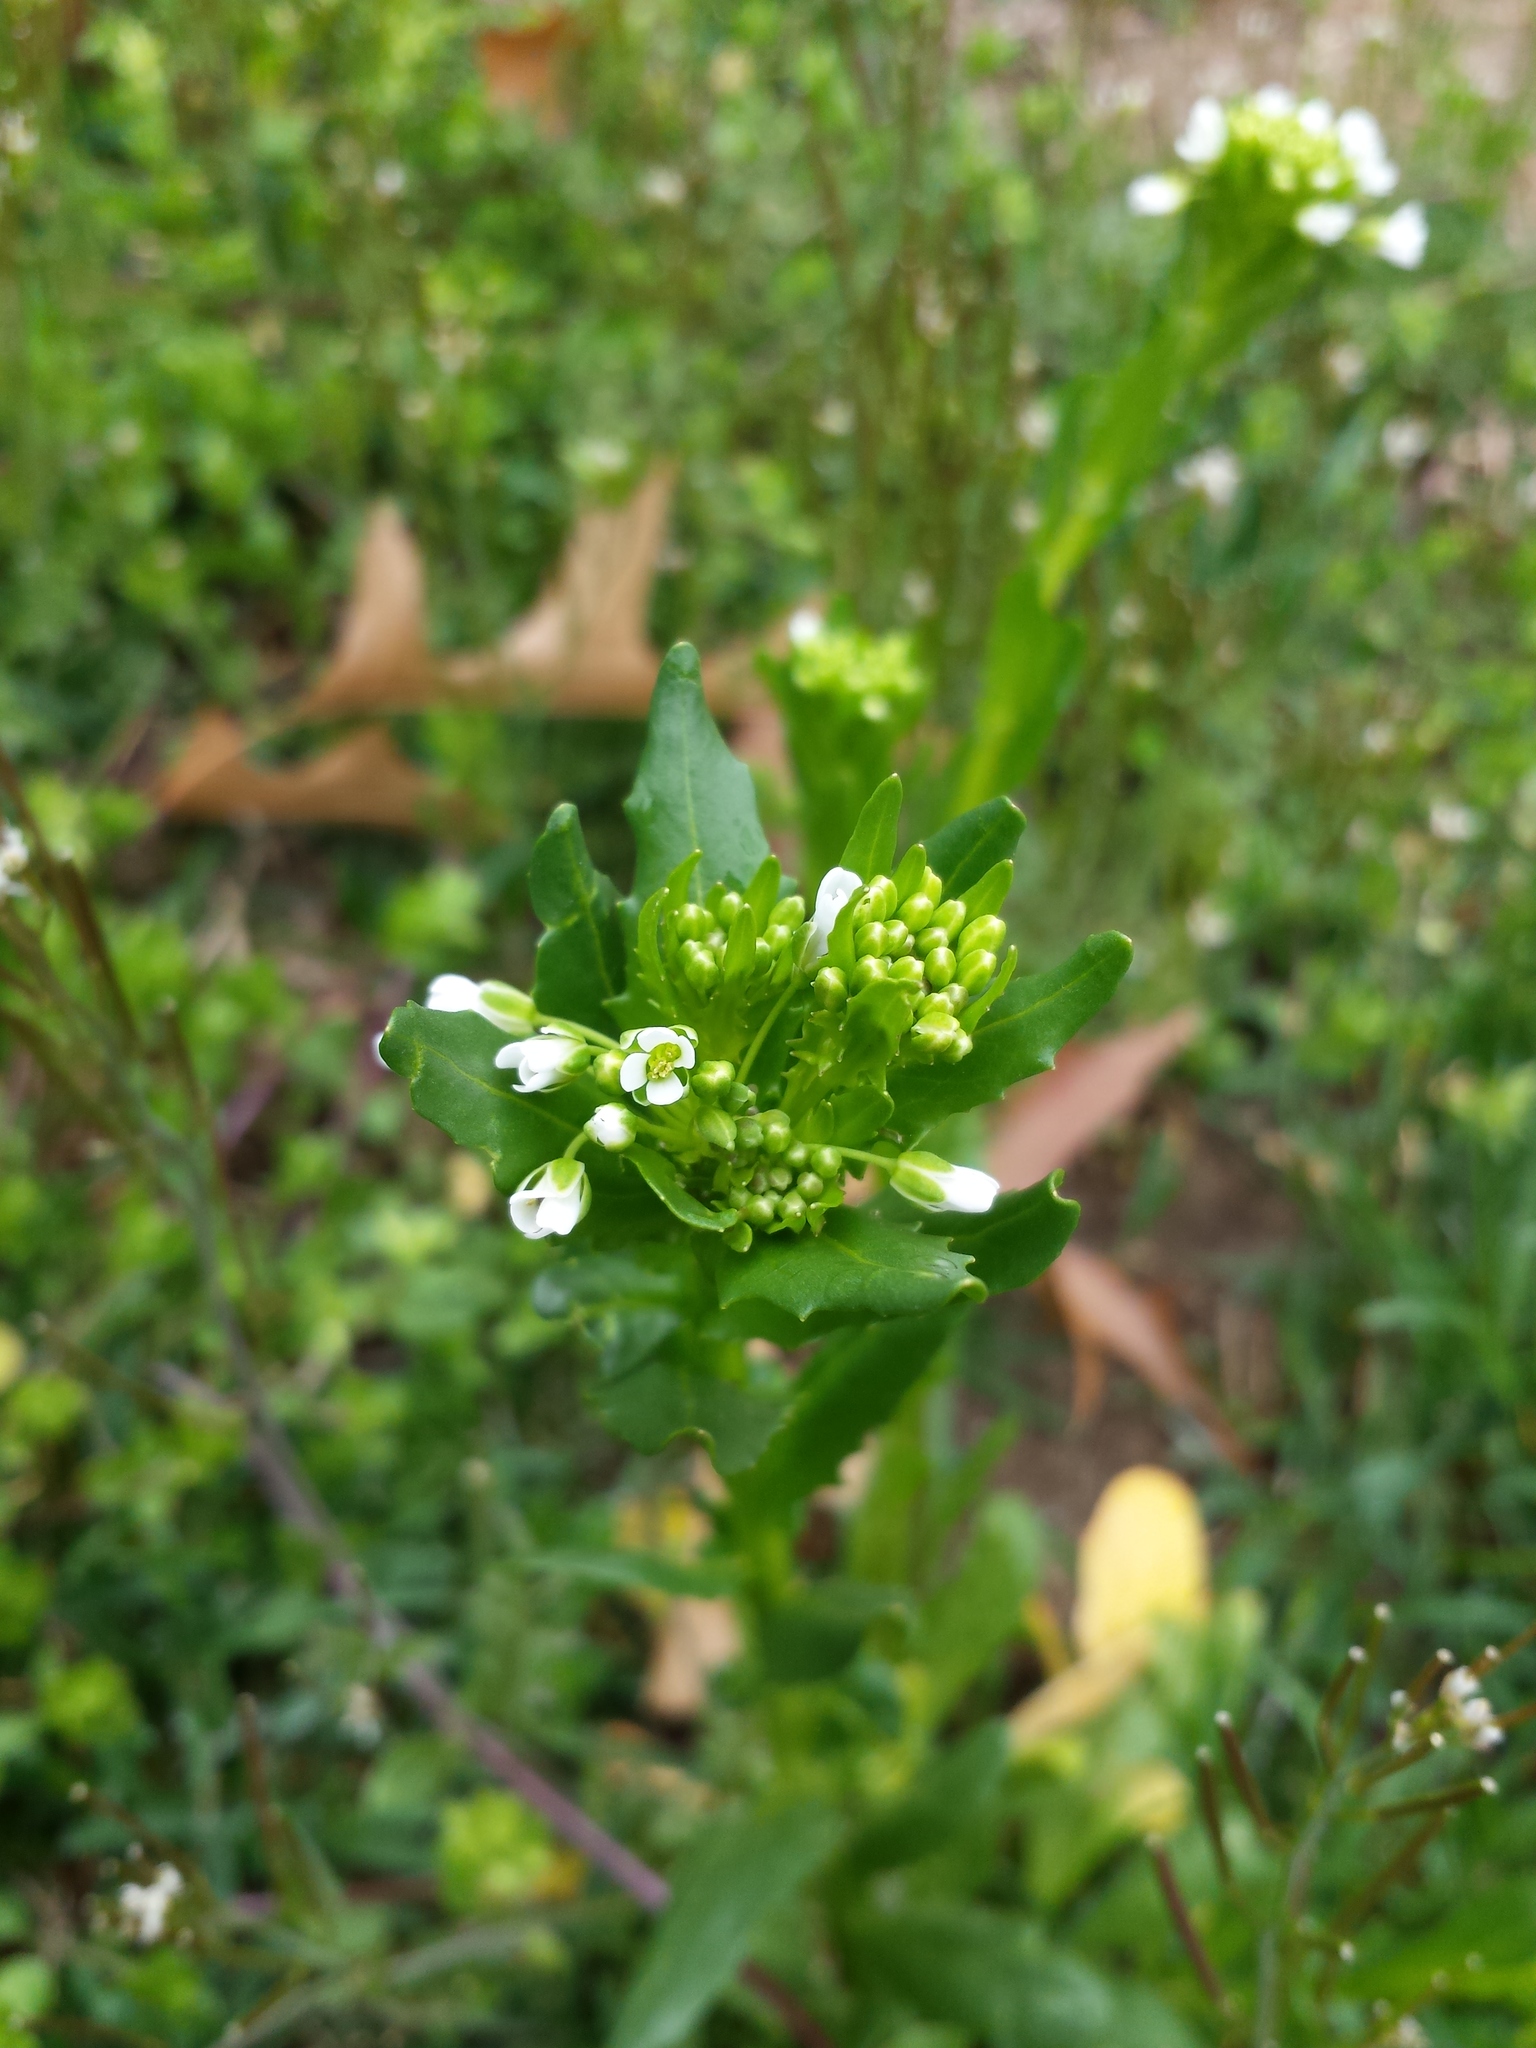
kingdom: Plantae
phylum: Tracheophyta
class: Magnoliopsida
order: Brassicales
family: Brassicaceae
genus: Thlaspi
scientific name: Thlaspi arvense
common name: Field pennycress
